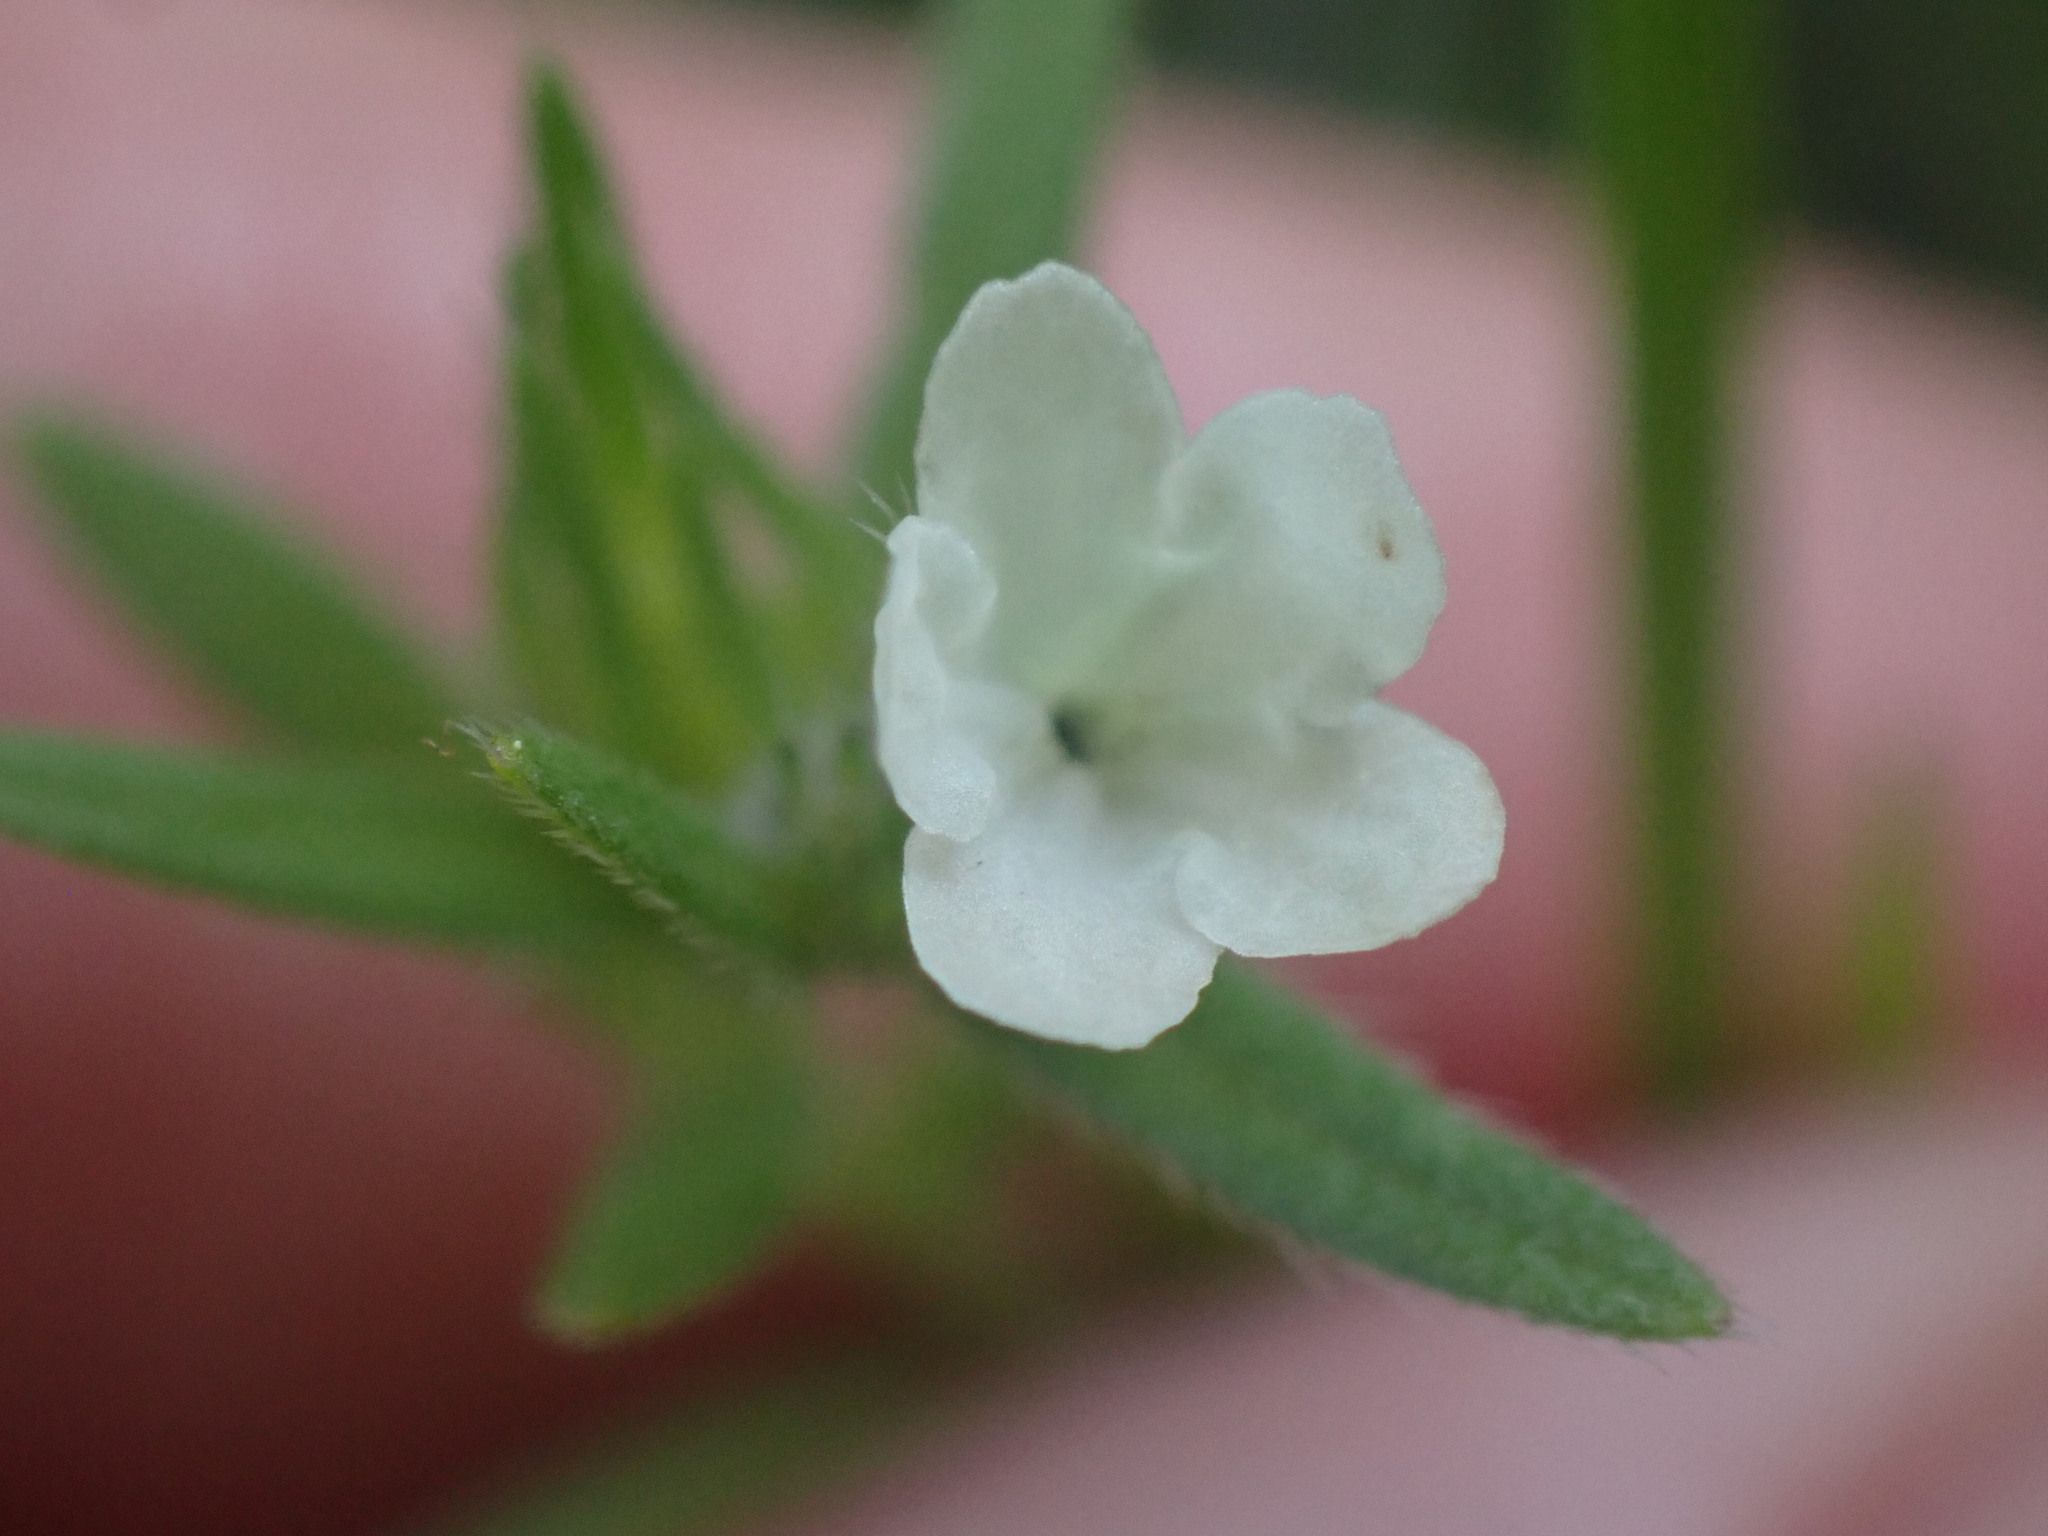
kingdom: Plantae
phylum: Tracheophyta
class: Magnoliopsida
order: Boraginales
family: Boraginaceae
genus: Buglossoides
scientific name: Buglossoides arvensis
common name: Corn gromwell
